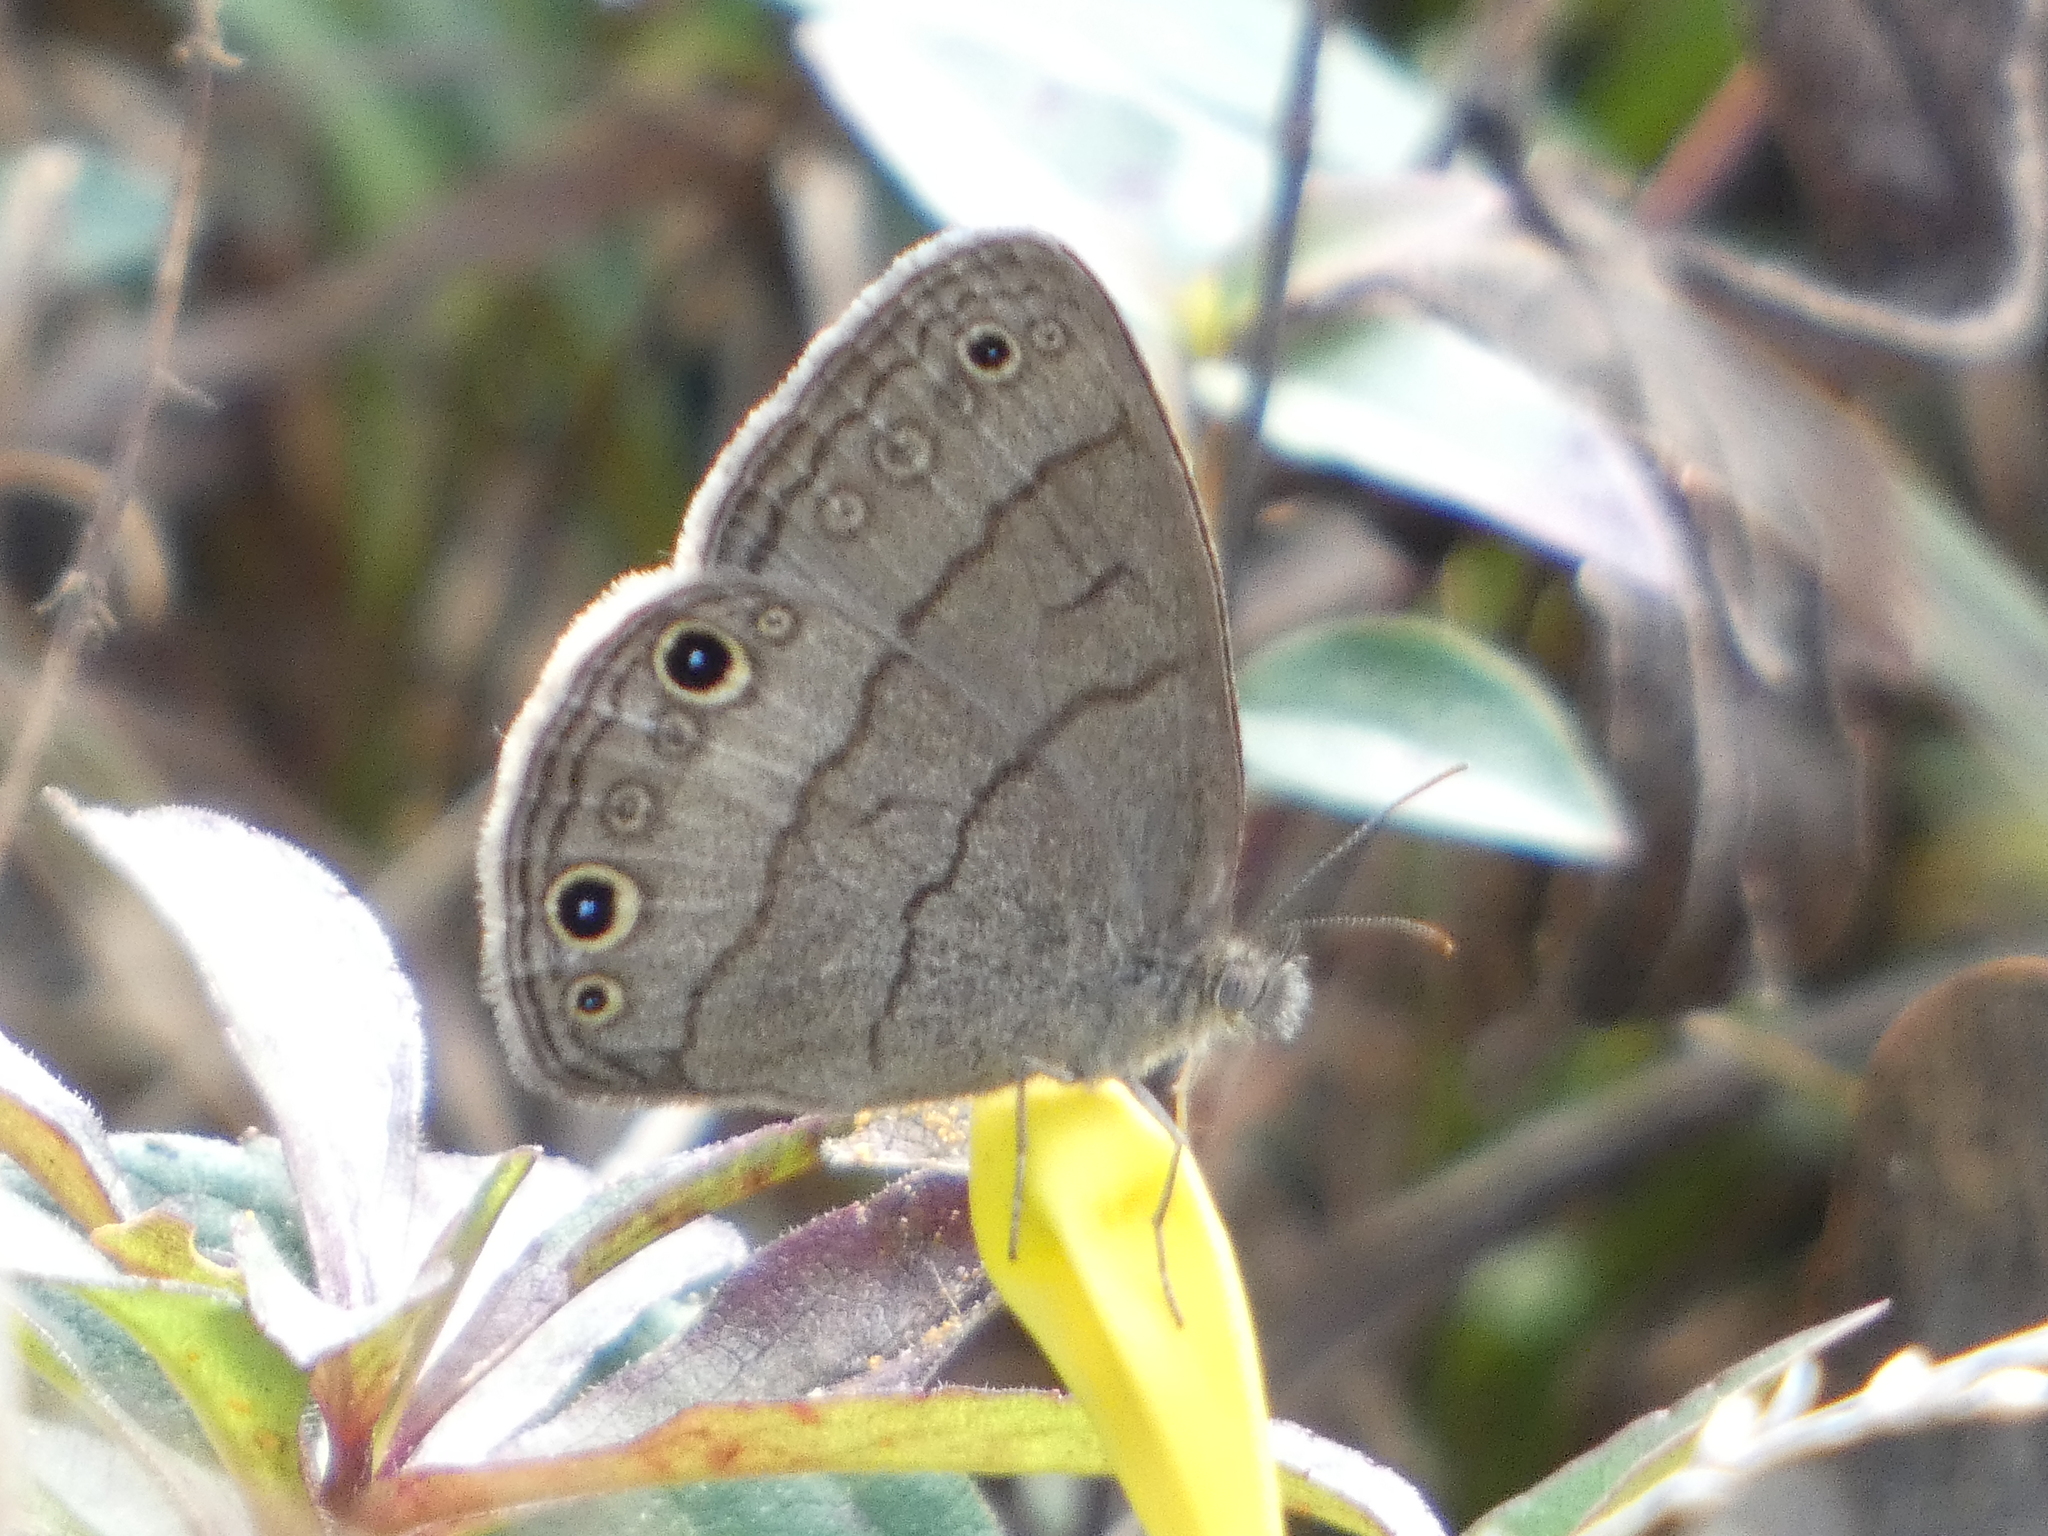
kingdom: Animalia
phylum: Arthropoda
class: Insecta
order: Lepidoptera
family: Nymphalidae
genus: Hermeuptychia
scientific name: Hermeuptychia hermes
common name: Hermes satyr
